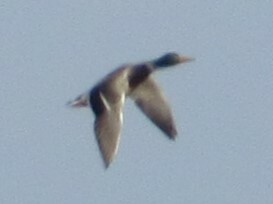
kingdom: Animalia
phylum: Chordata
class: Aves
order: Anseriformes
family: Anatidae
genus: Anas
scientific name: Anas platyrhynchos
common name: Mallard
